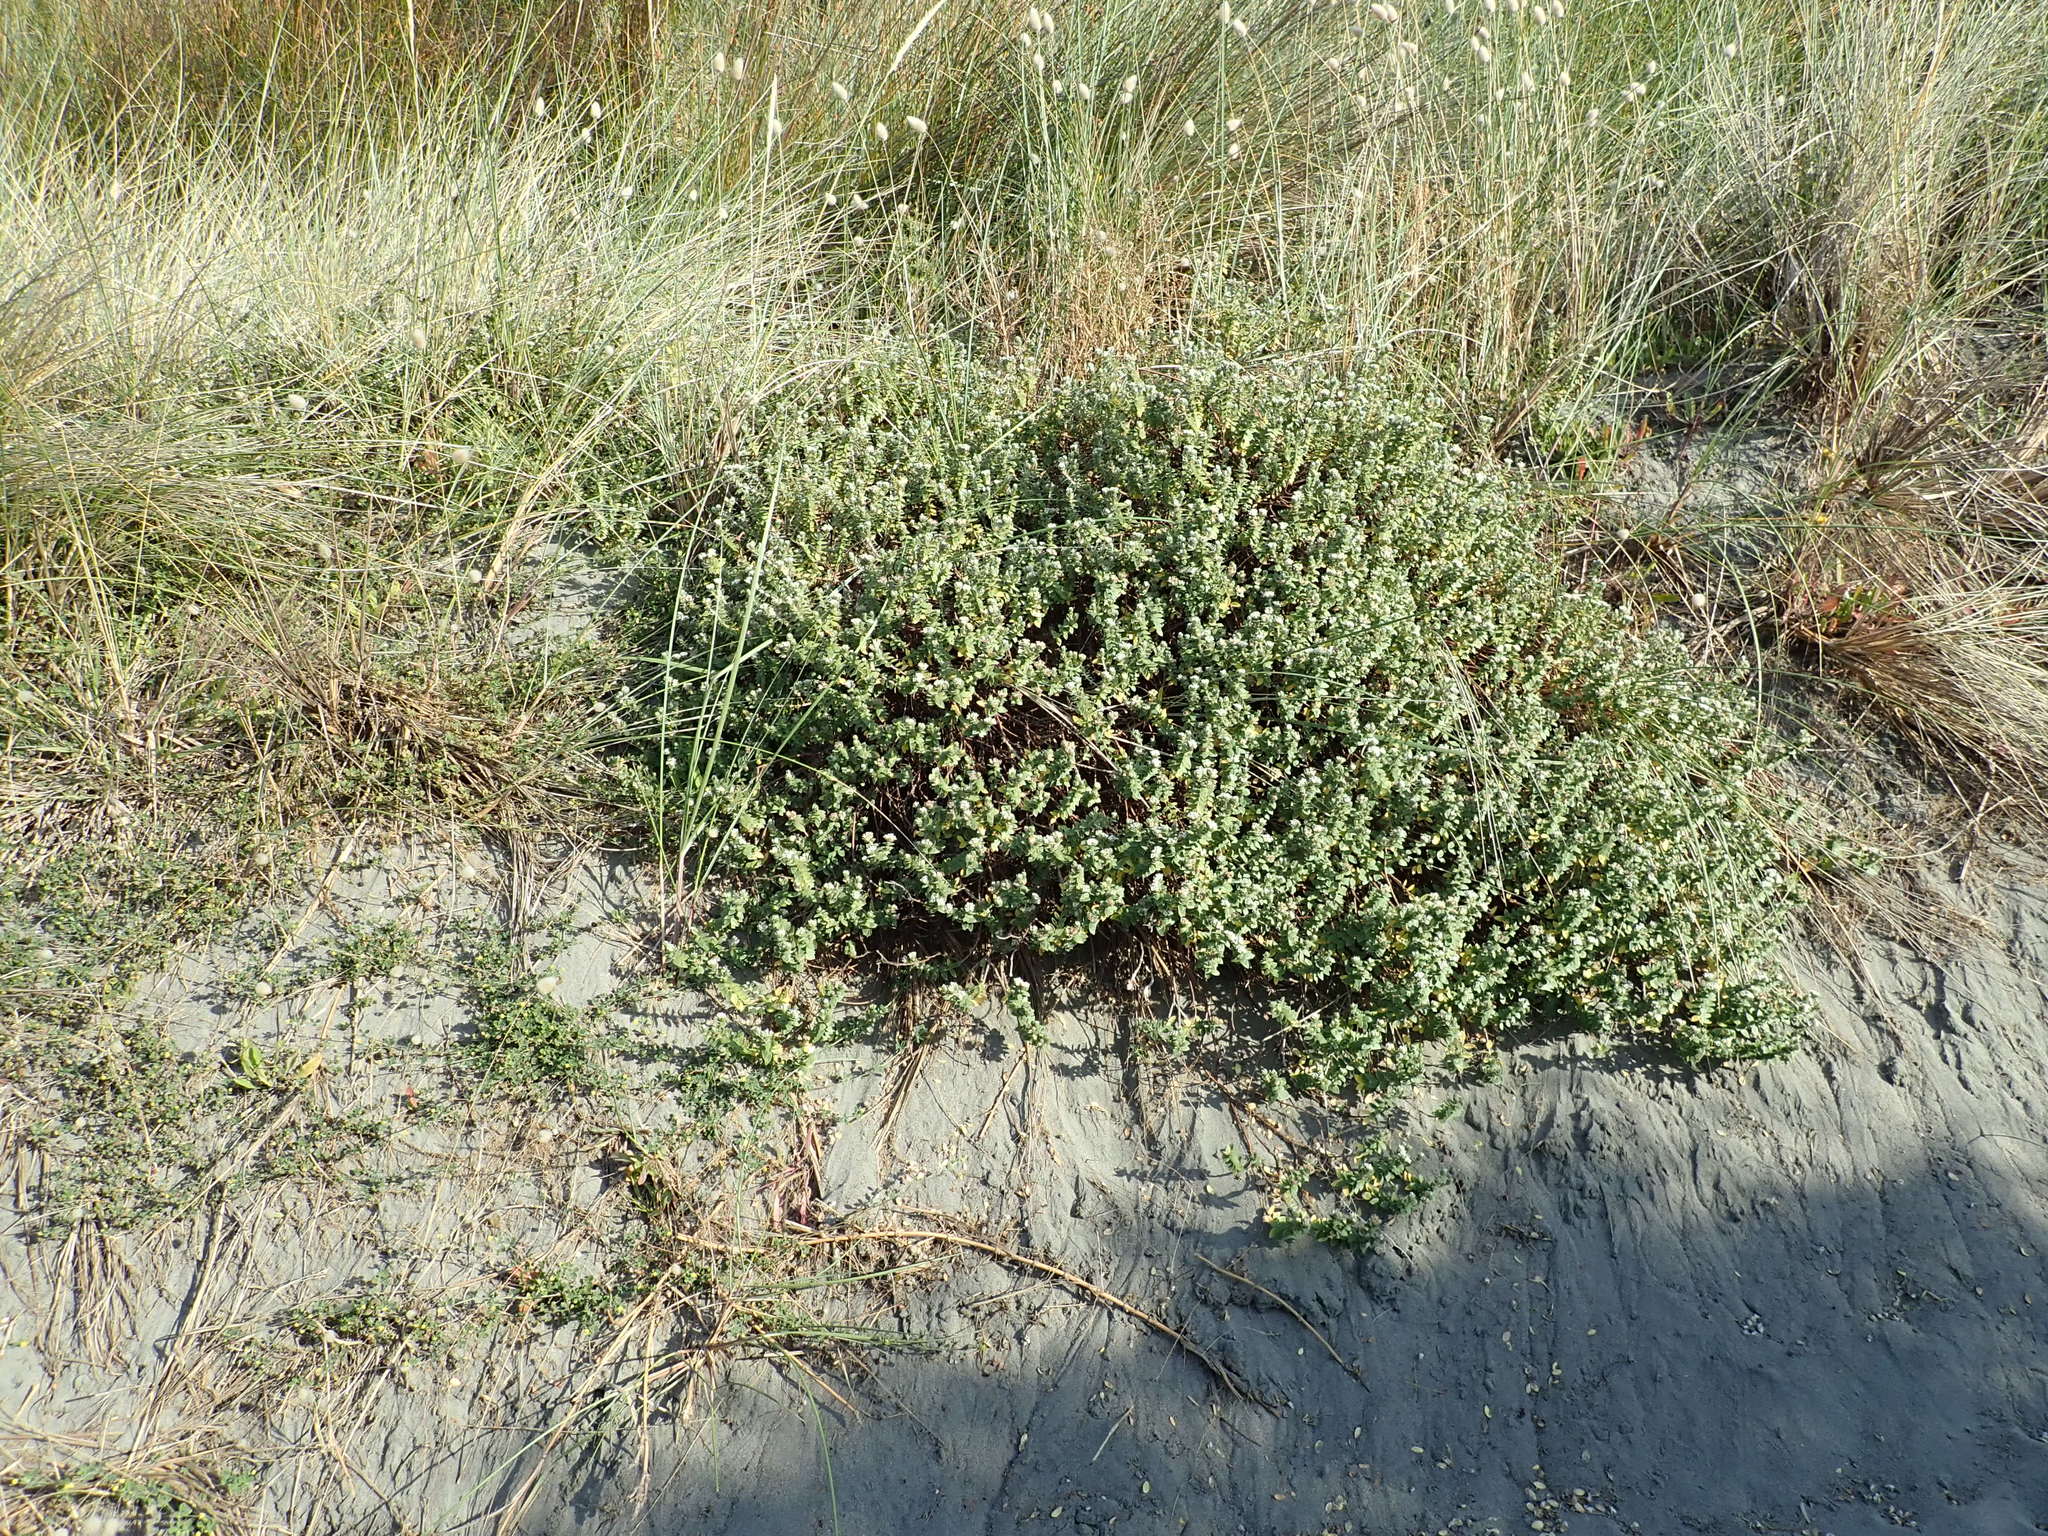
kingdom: Plantae
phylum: Tracheophyta
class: Magnoliopsida
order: Malvales
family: Thymelaeaceae
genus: Pimelea
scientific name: Pimelea villosa
